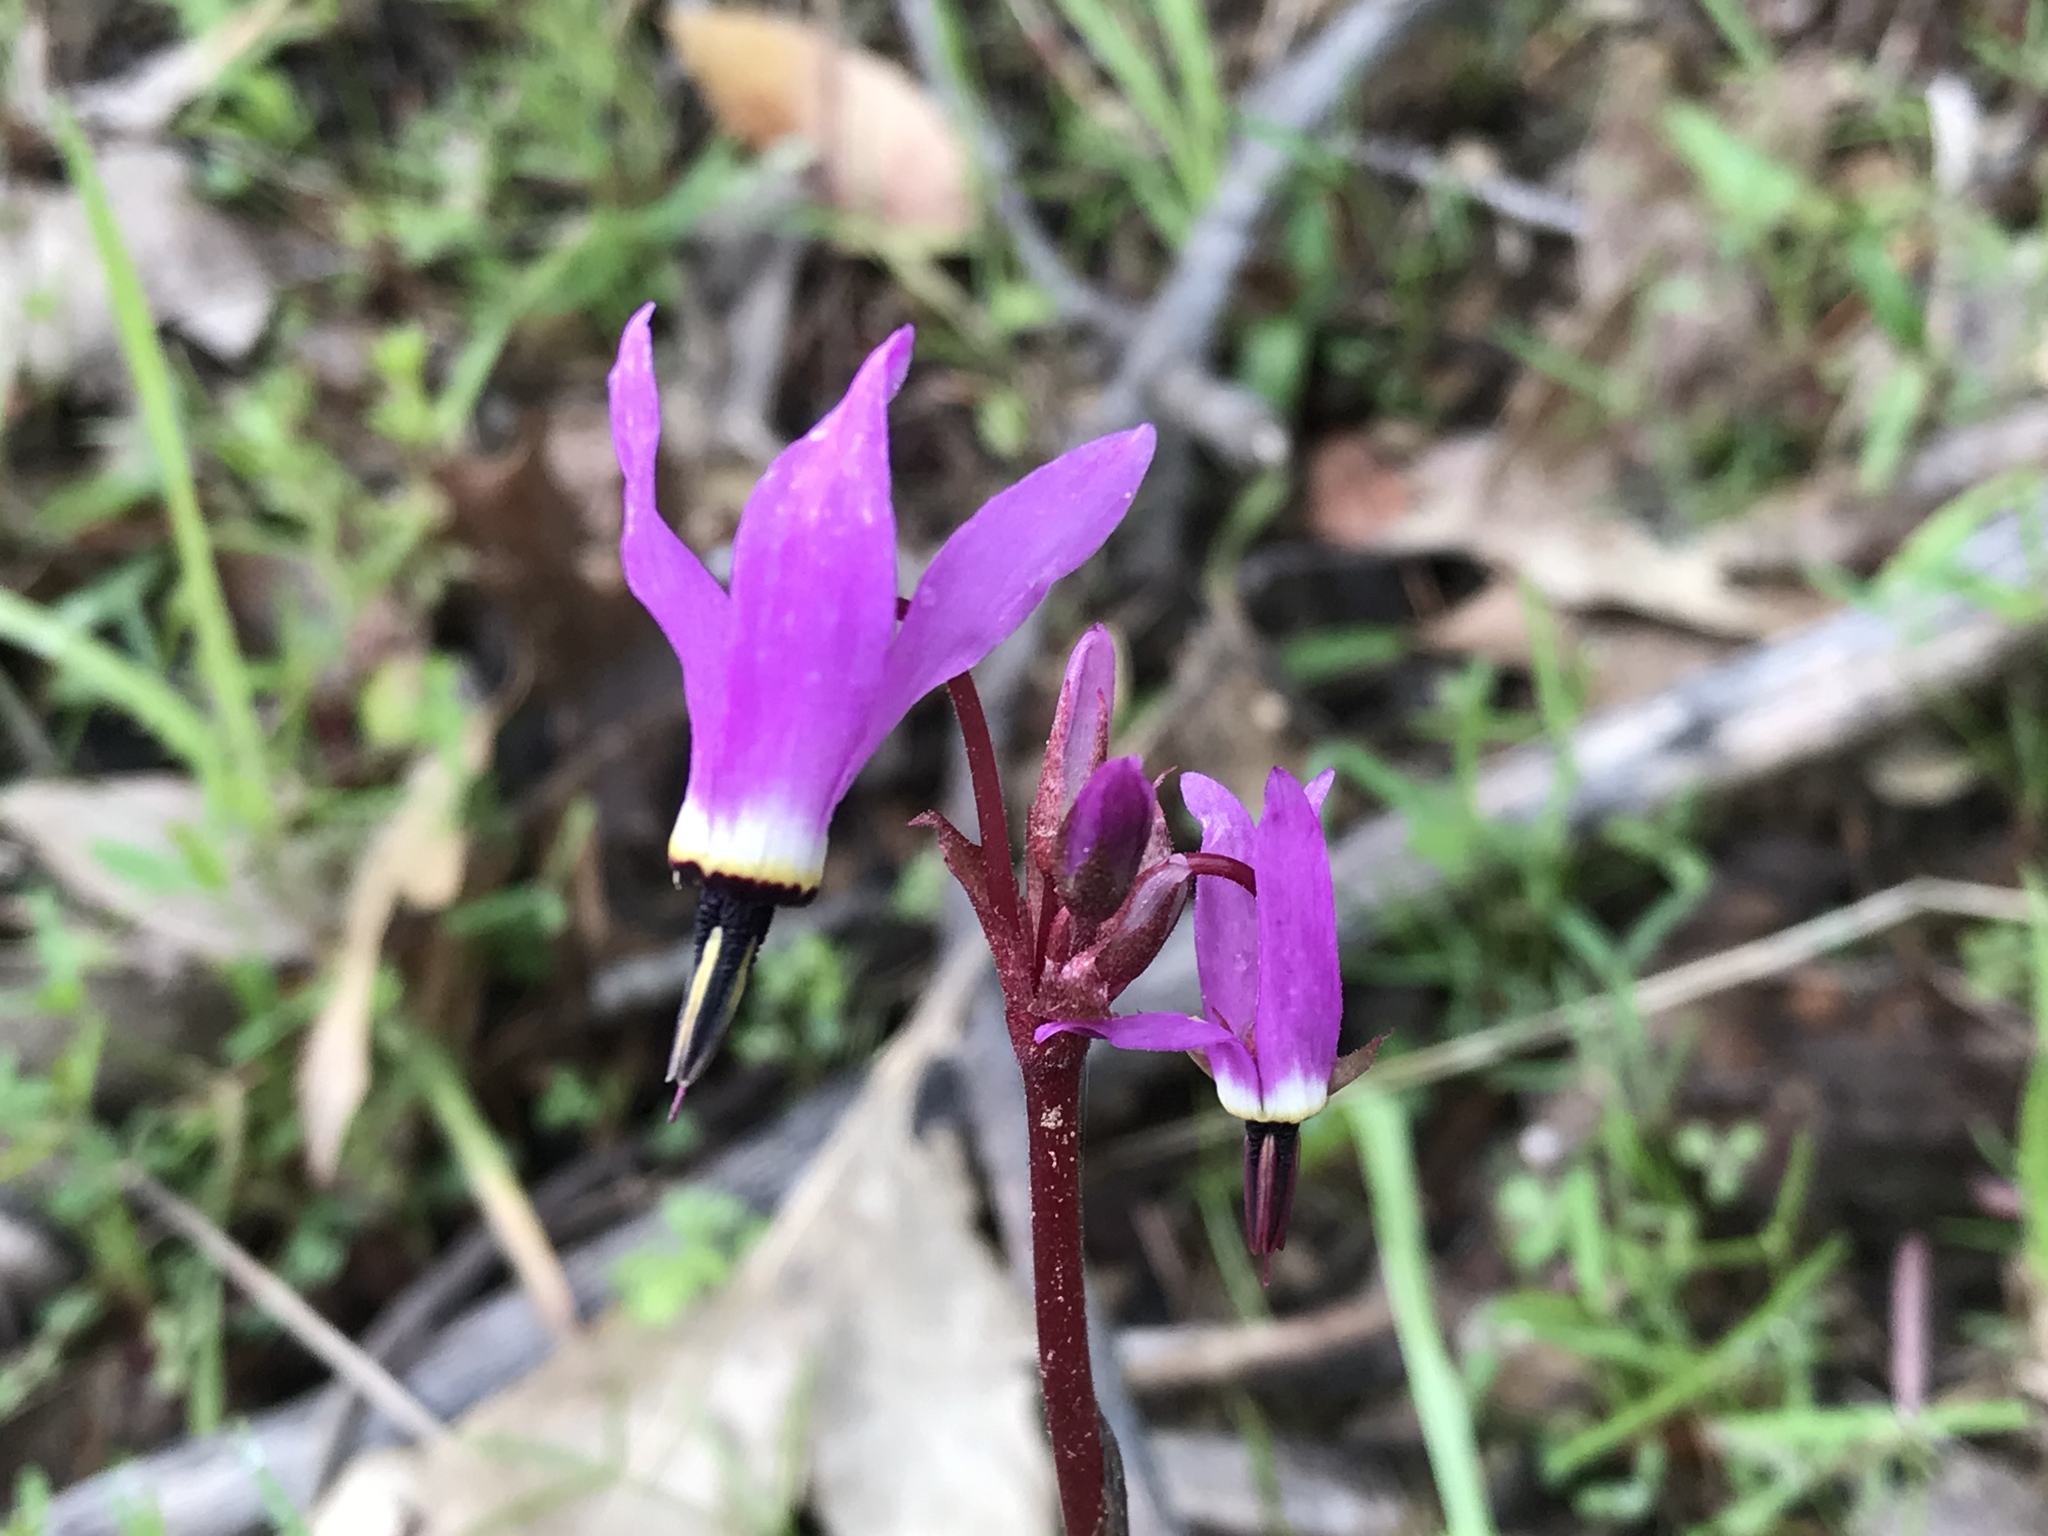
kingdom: Plantae
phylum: Tracheophyta
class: Magnoliopsida
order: Ericales
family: Primulaceae
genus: Dodecatheon
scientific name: Dodecatheon hendersonii
